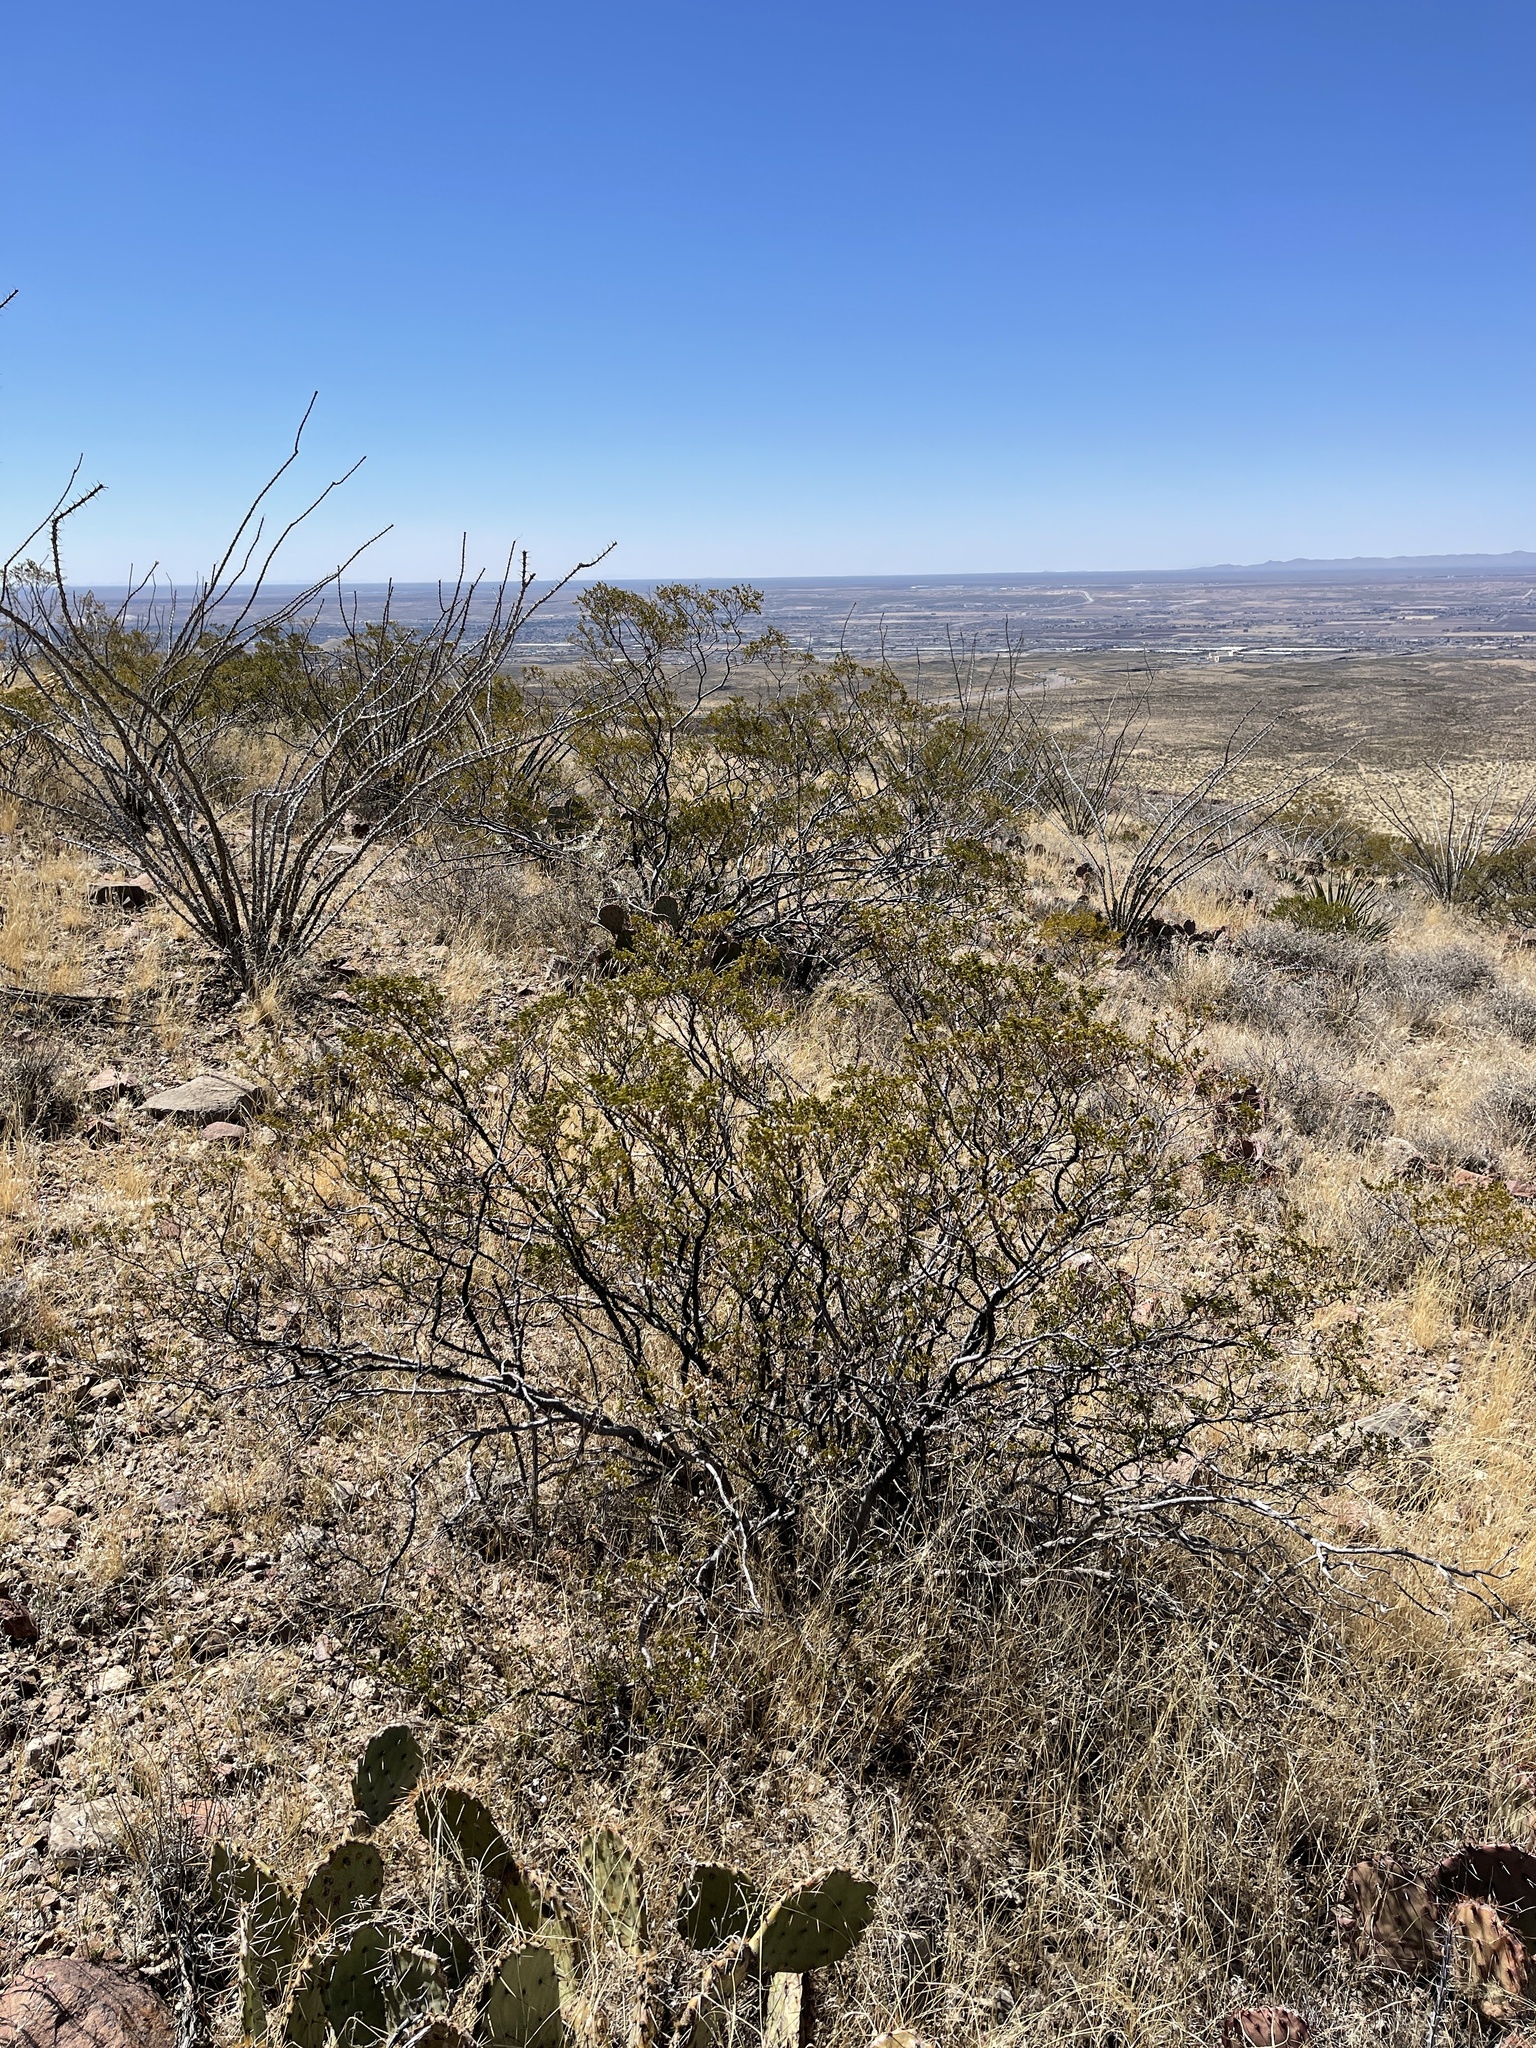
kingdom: Plantae
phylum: Tracheophyta
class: Magnoliopsida
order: Zygophyllales
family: Zygophyllaceae
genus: Larrea
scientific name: Larrea tridentata
